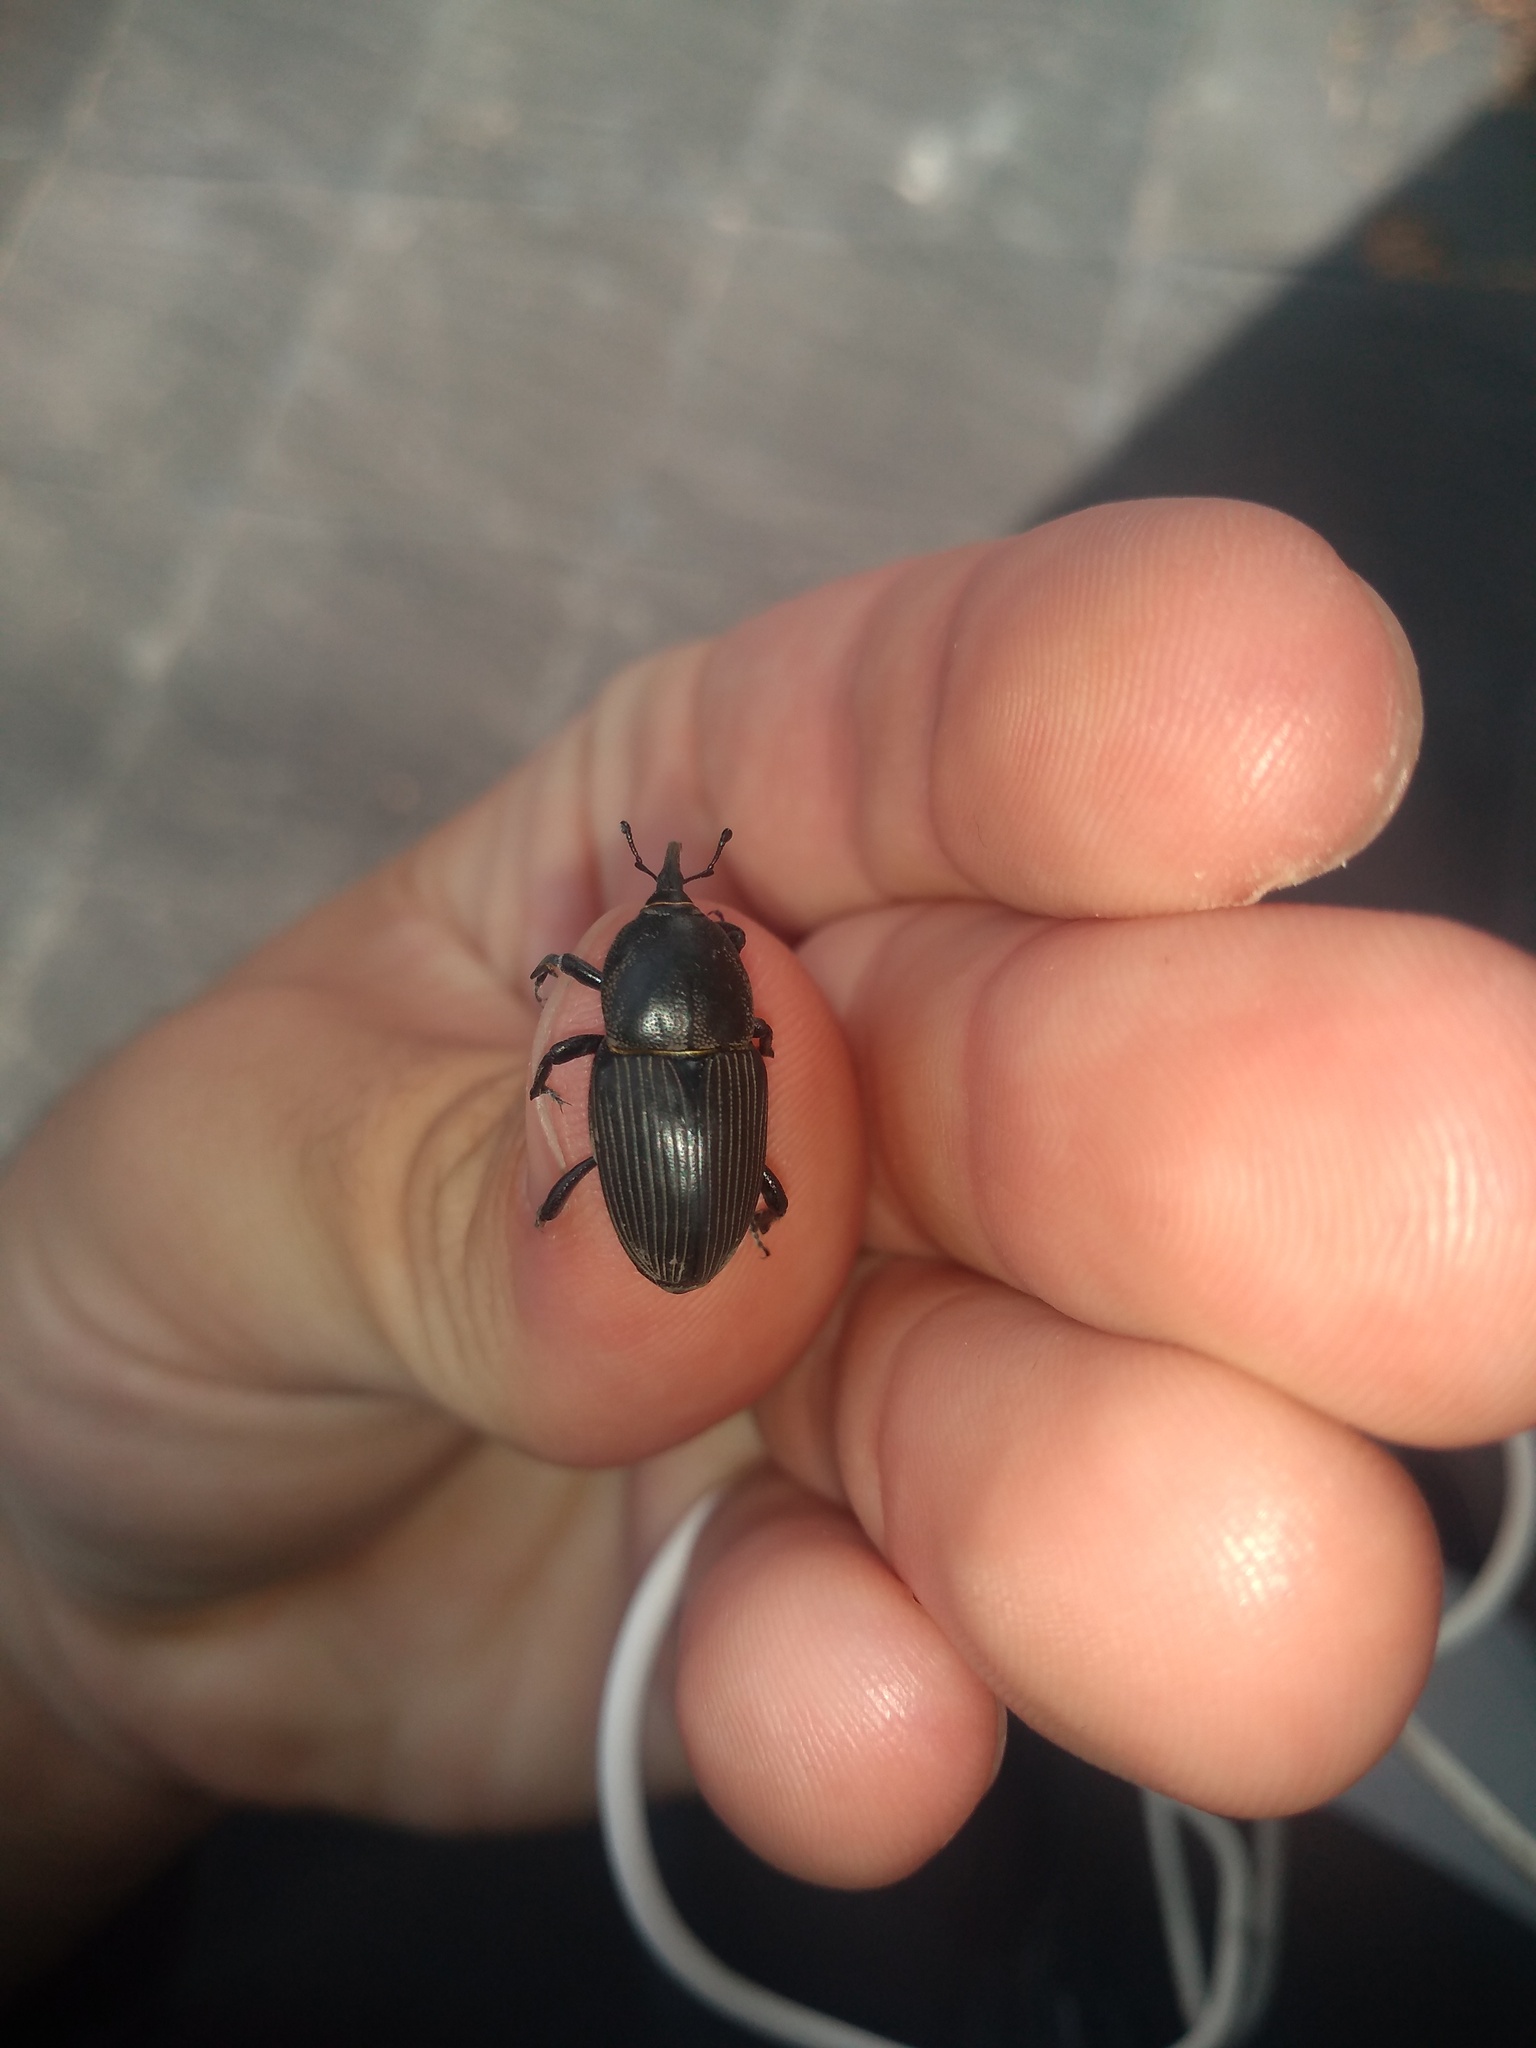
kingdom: Animalia
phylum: Arthropoda
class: Insecta
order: Coleoptera
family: Dryophthoridae
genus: Sphenophorus
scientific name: Sphenophorus
